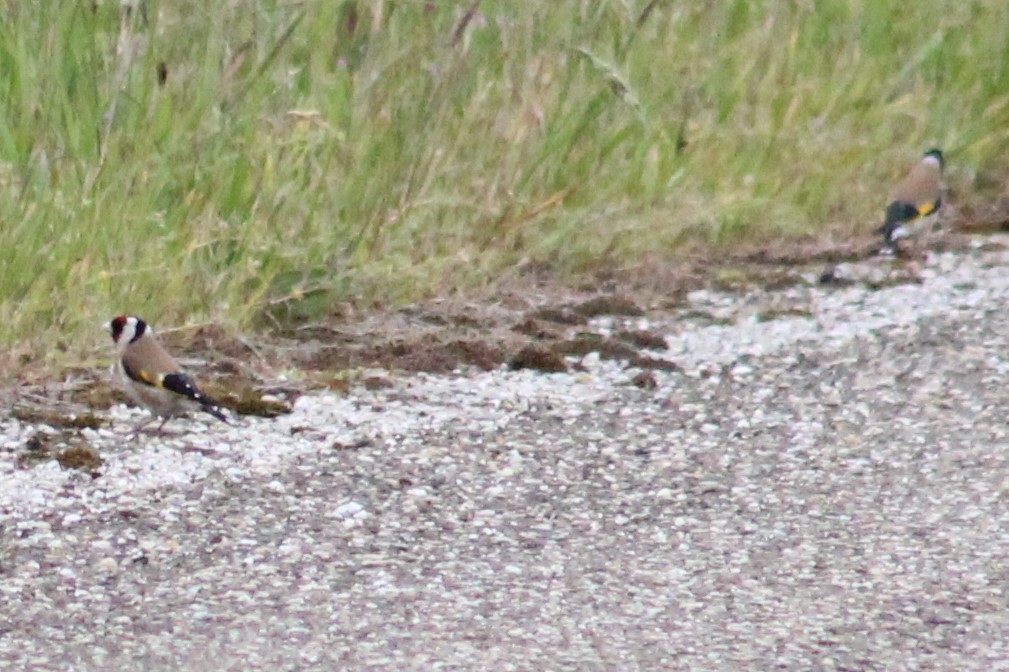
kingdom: Animalia
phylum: Chordata
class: Aves
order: Passeriformes
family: Fringillidae
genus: Carduelis
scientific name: Carduelis carduelis
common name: European goldfinch
